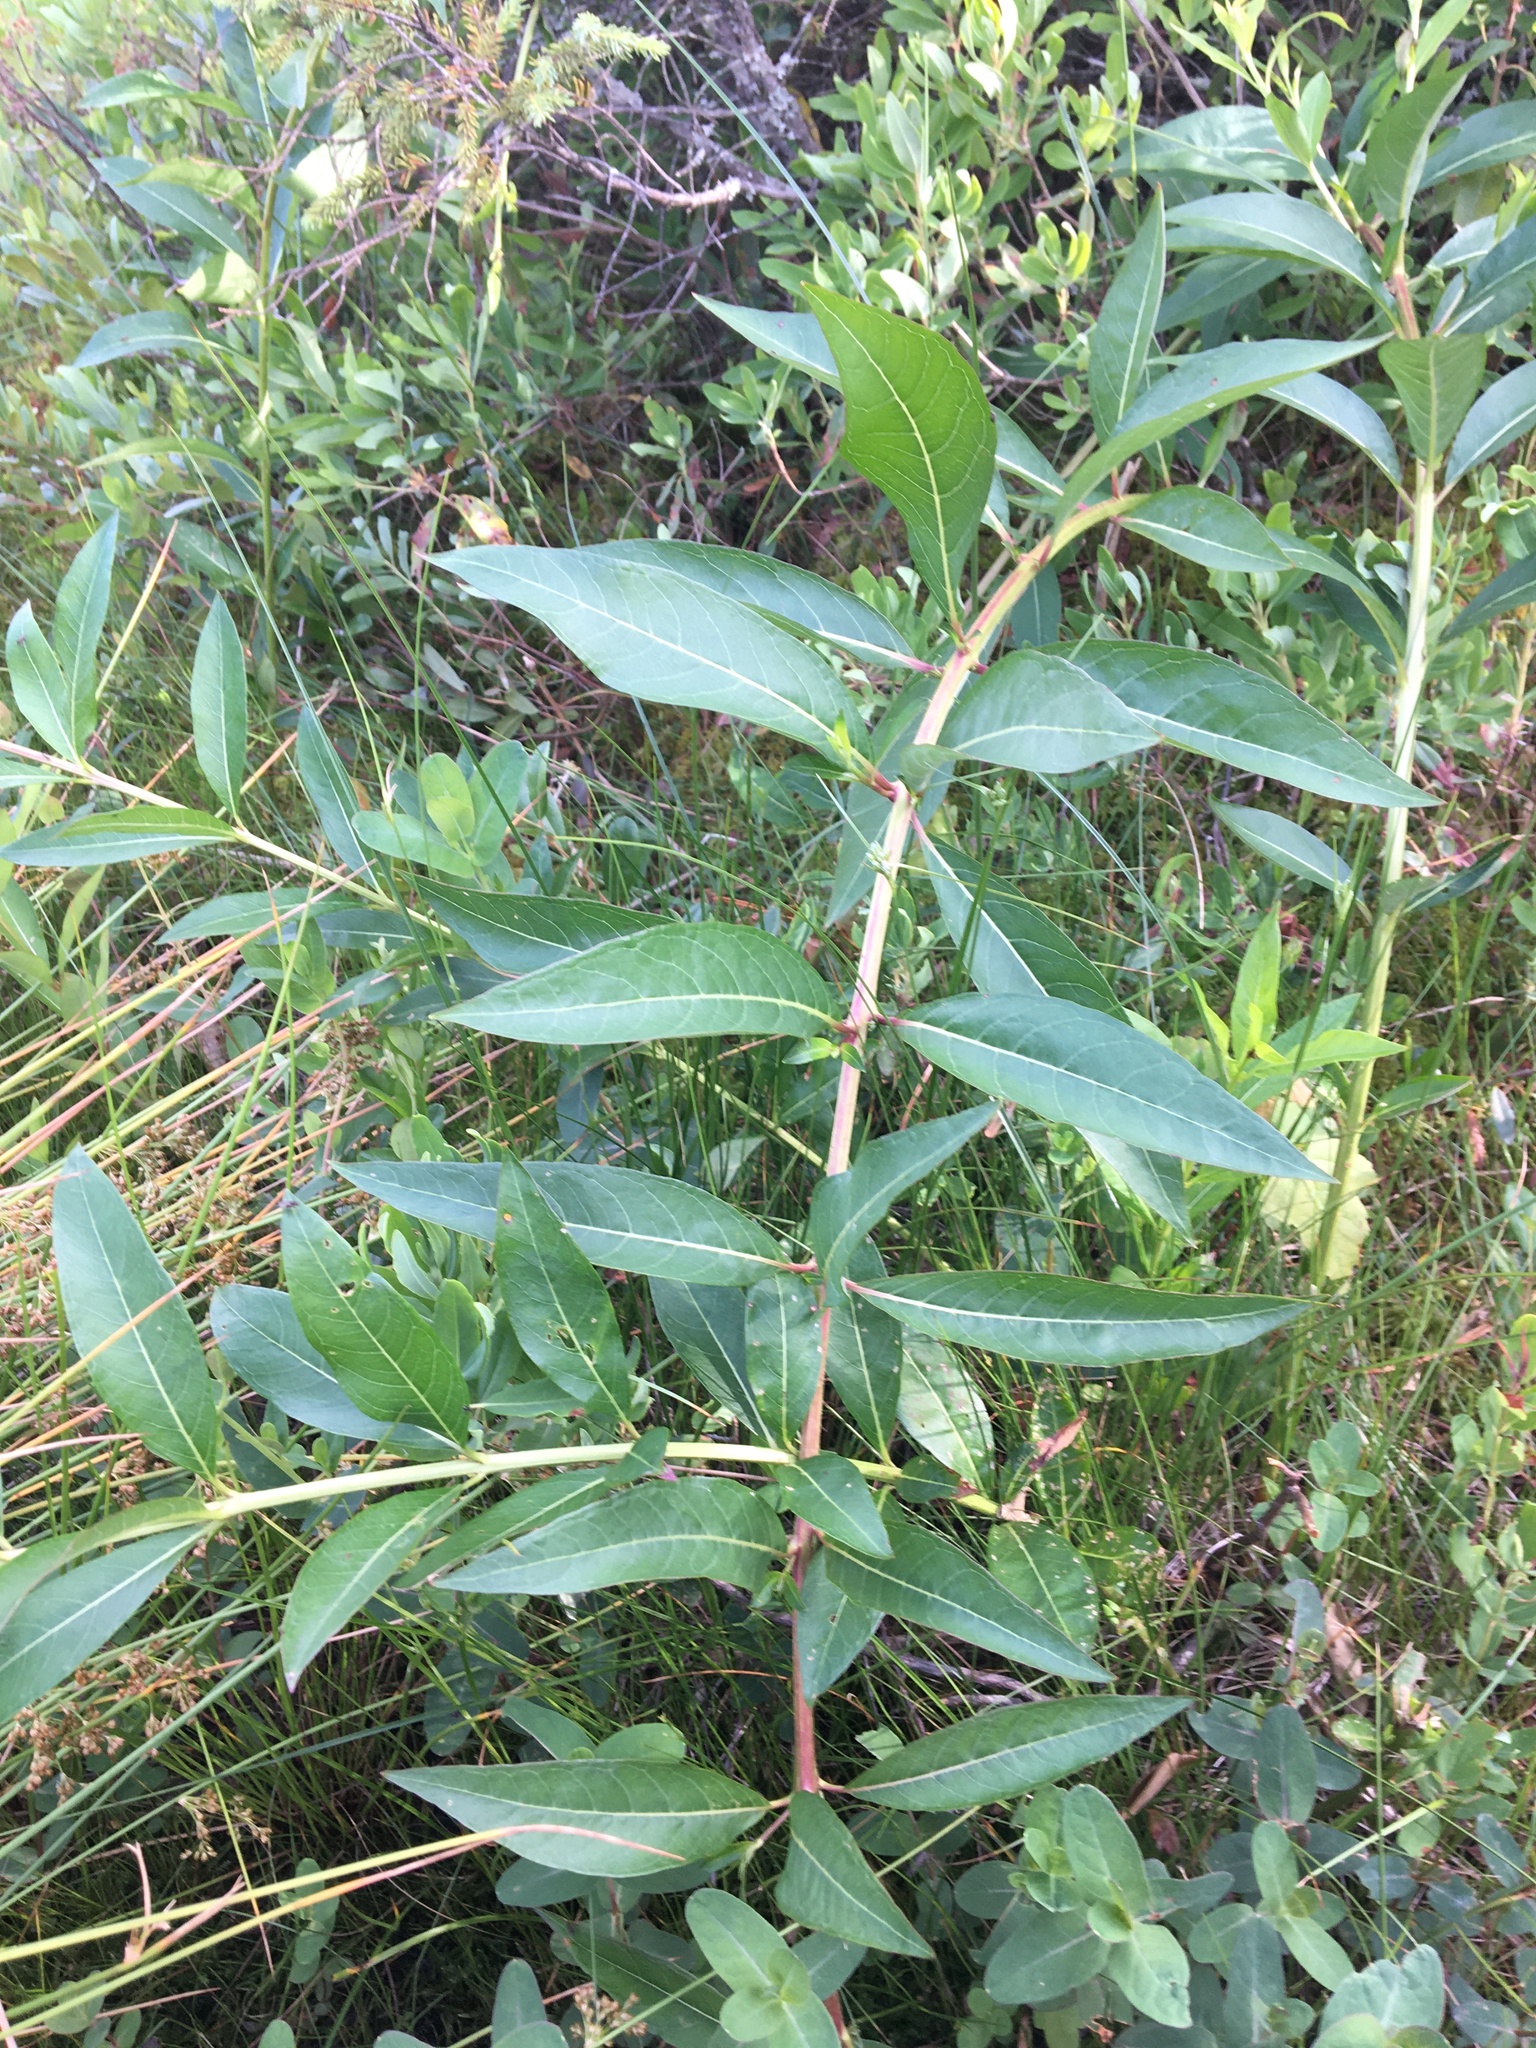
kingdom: Plantae
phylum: Tracheophyta
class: Magnoliopsida
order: Myrtales
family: Lythraceae
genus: Decodon
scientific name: Decodon verticillatus
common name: Hairy swamp loosestrife
